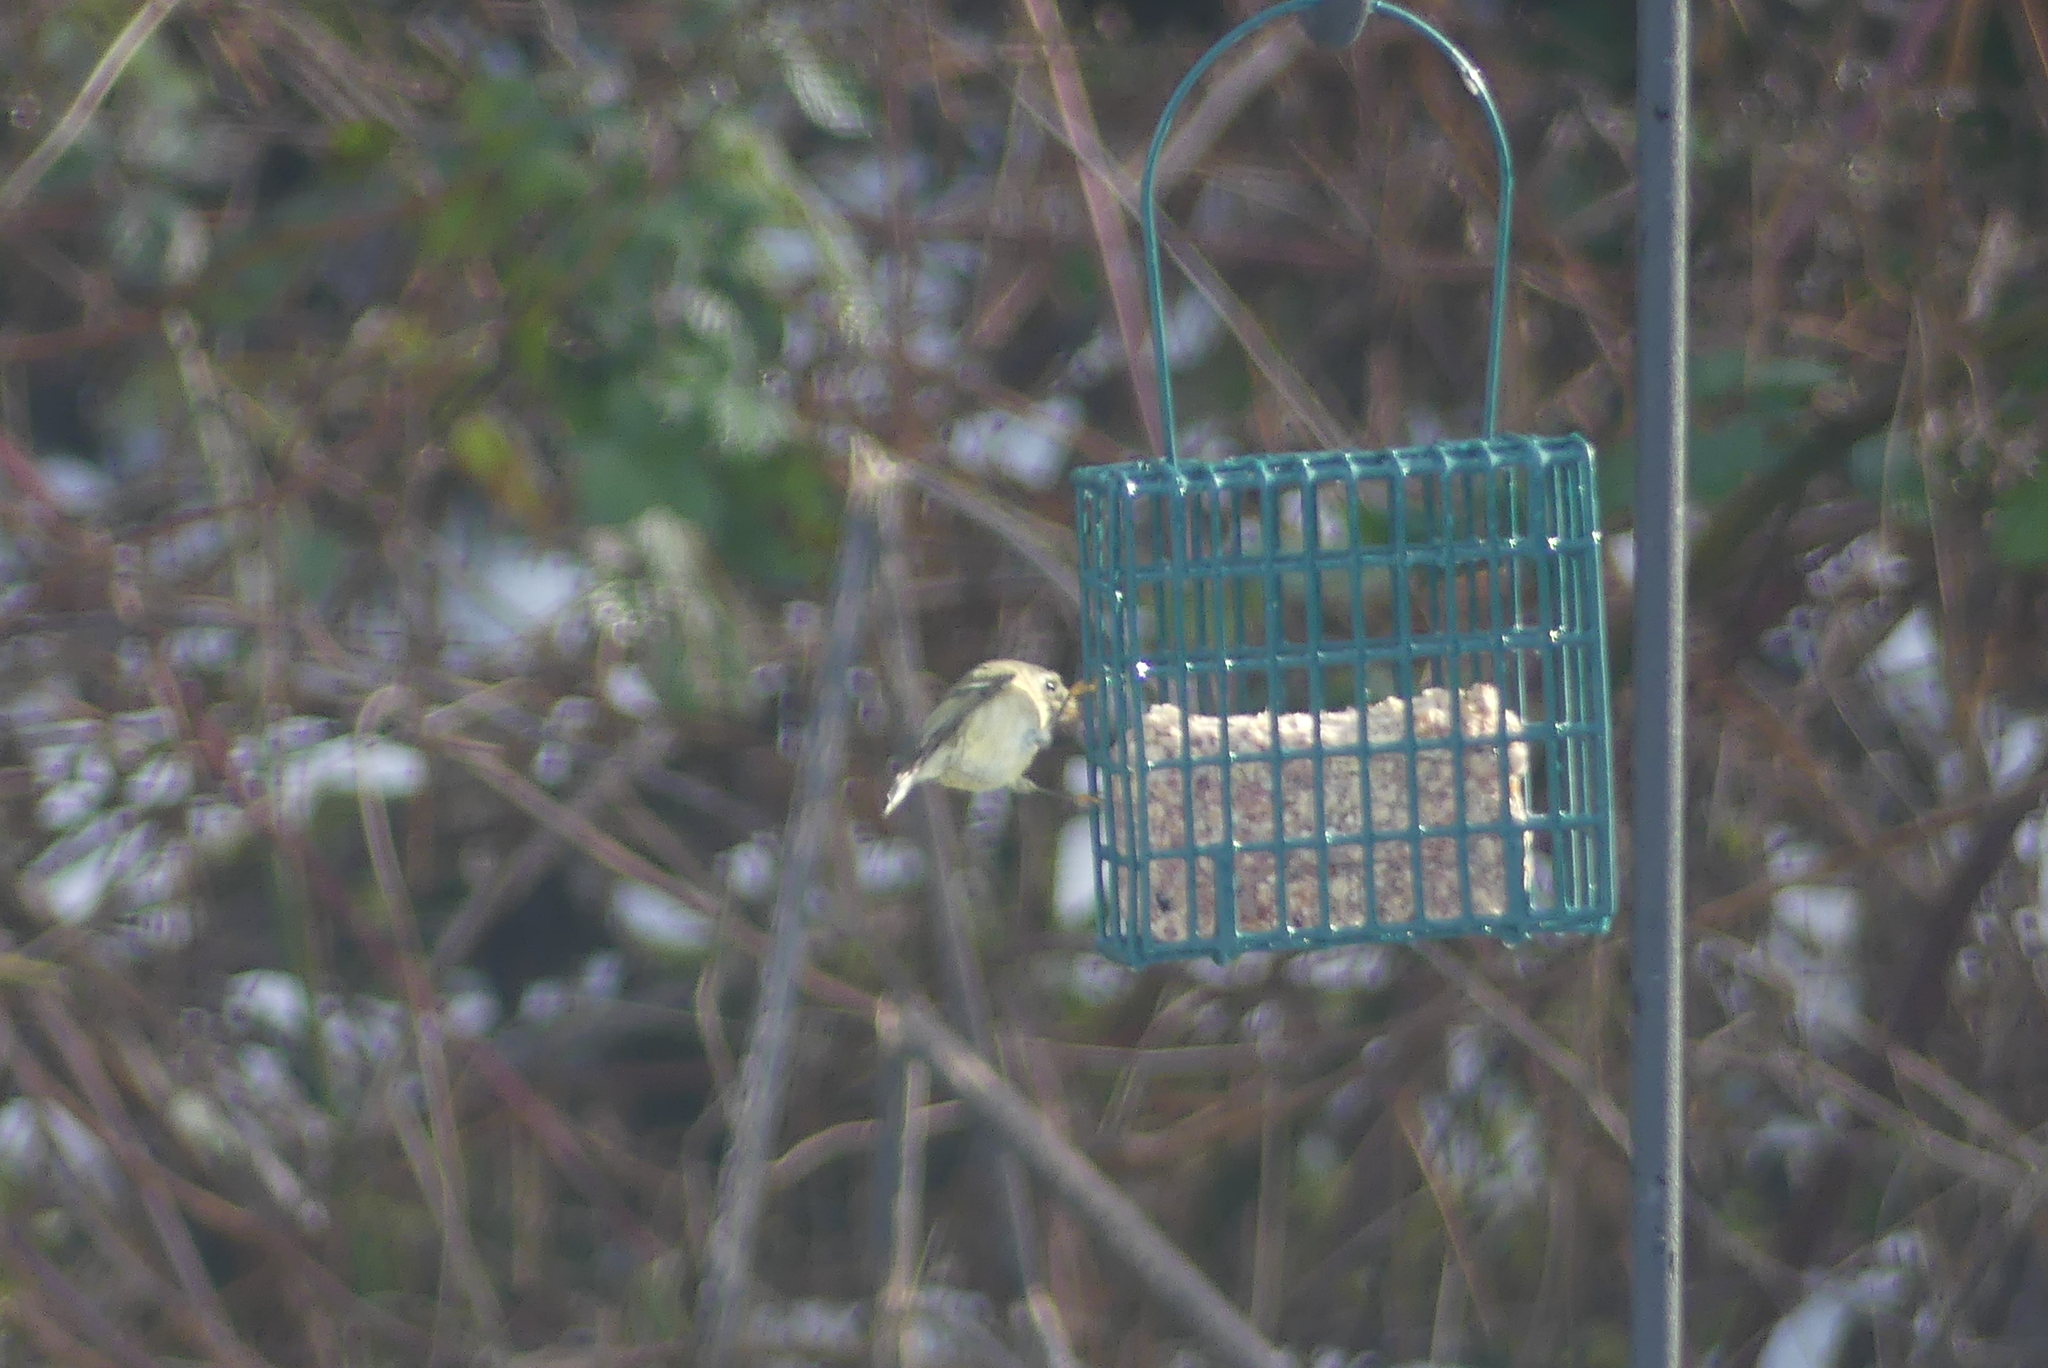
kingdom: Animalia
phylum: Chordata
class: Aves
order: Passeriformes
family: Regulidae
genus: Regulus
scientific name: Regulus calendula
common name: Ruby-crowned kinglet
